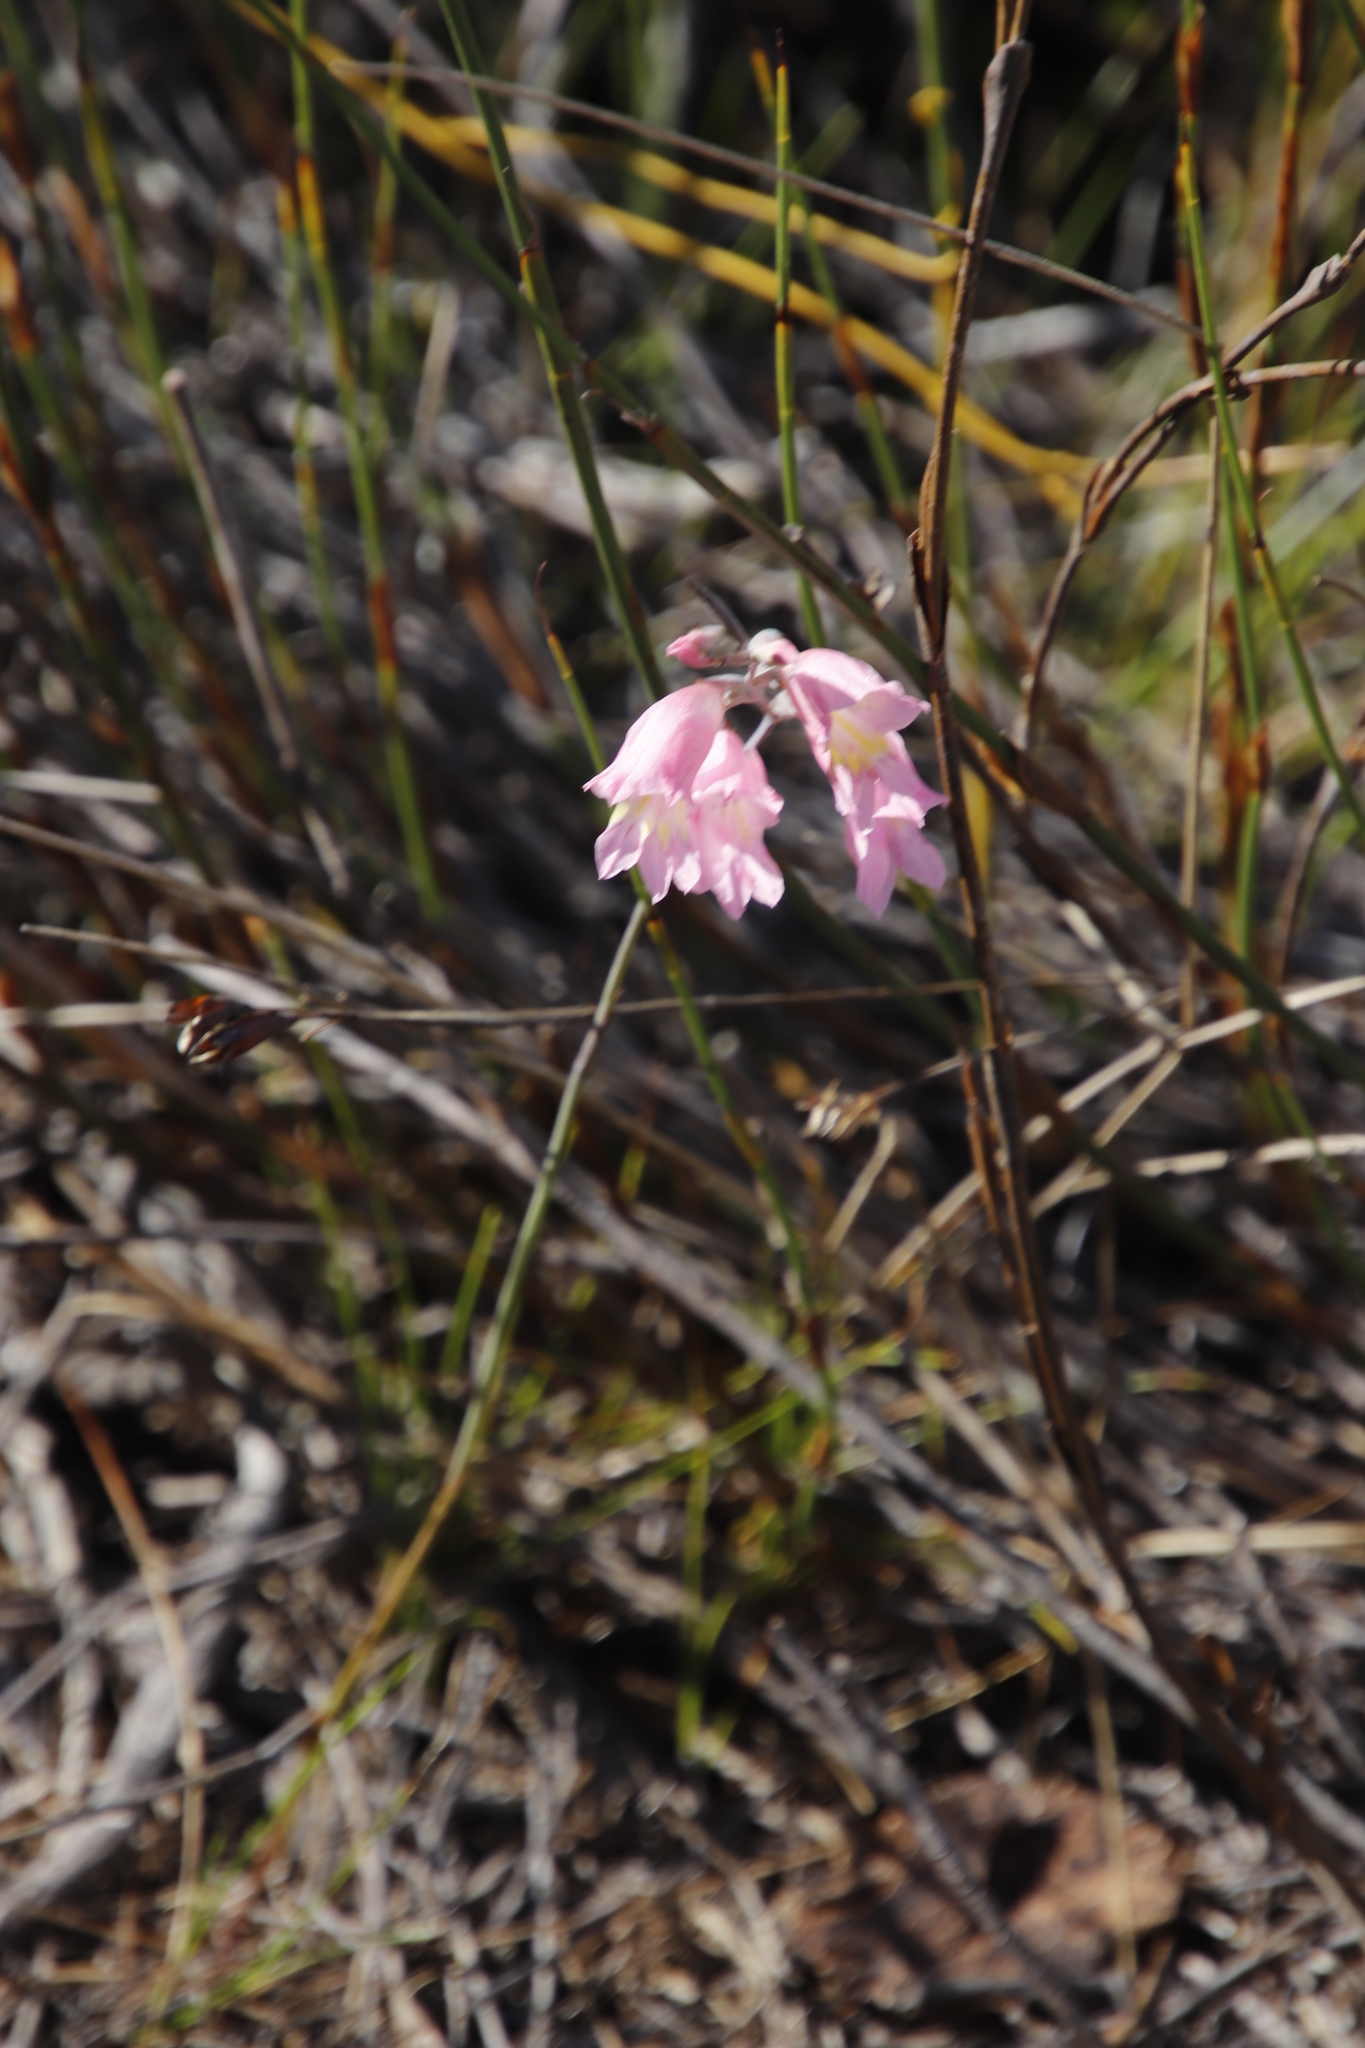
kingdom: Plantae
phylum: Tracheophyta
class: Liliopsida
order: Asparagales
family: Iridaceae
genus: Gladiolus
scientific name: Gladiolus brevifolius
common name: March pypie
